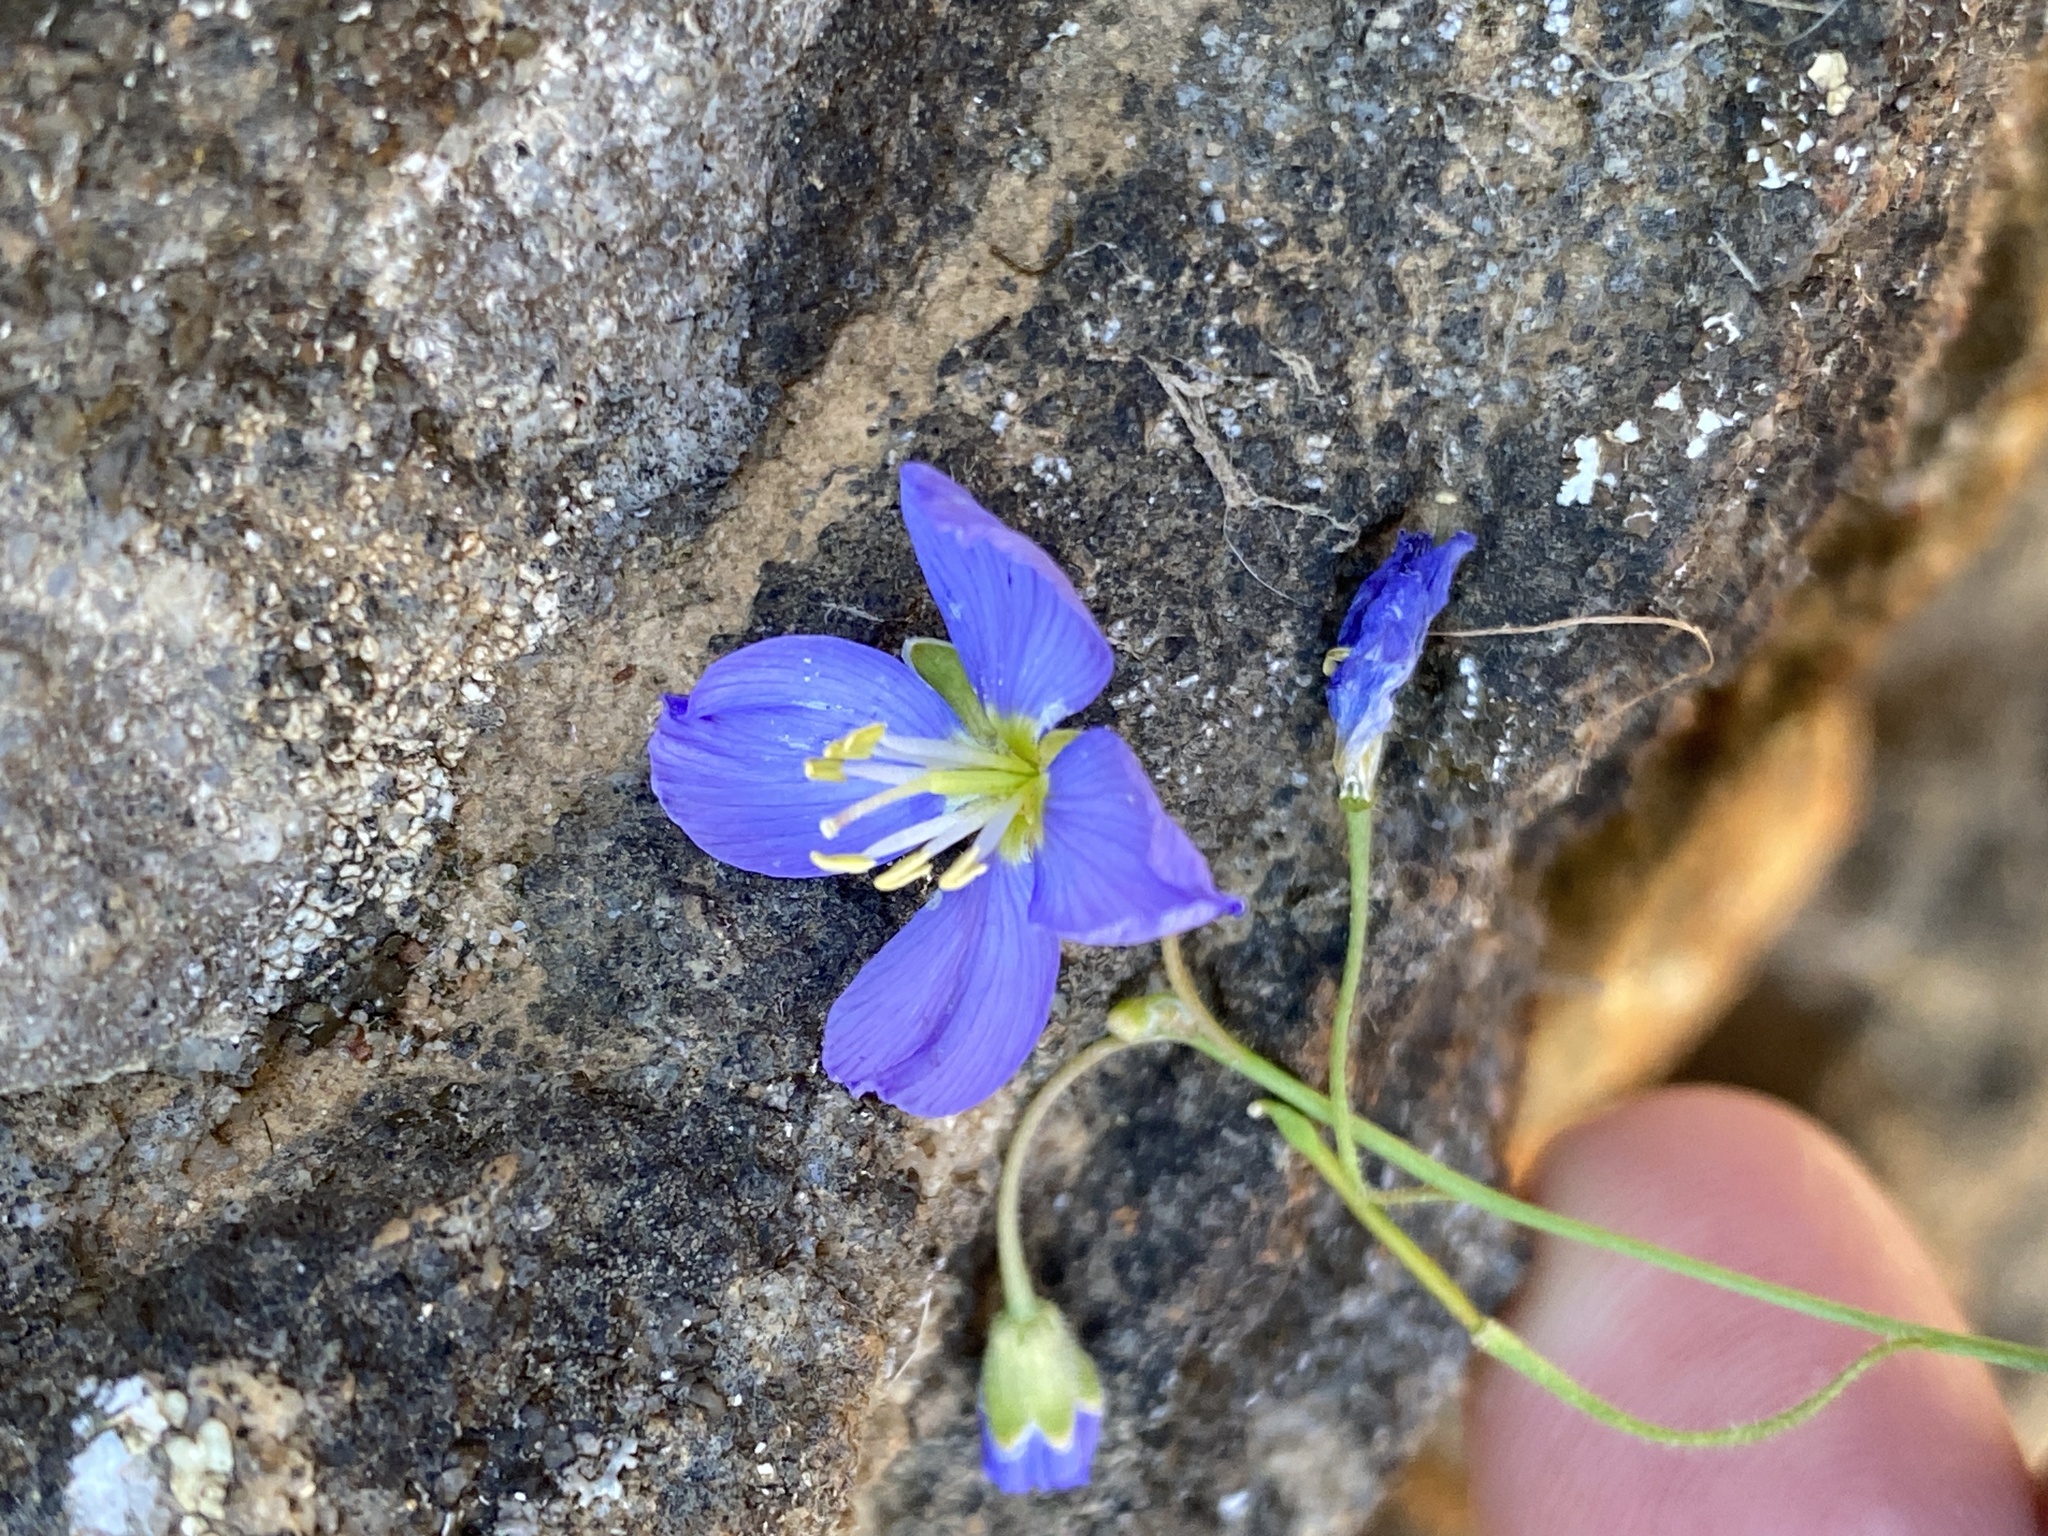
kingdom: Plantae
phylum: Tracheophyta
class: Magnoliopsida
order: Brassicales
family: Brassicaceae
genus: Heliophila
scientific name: Heliophila elata
